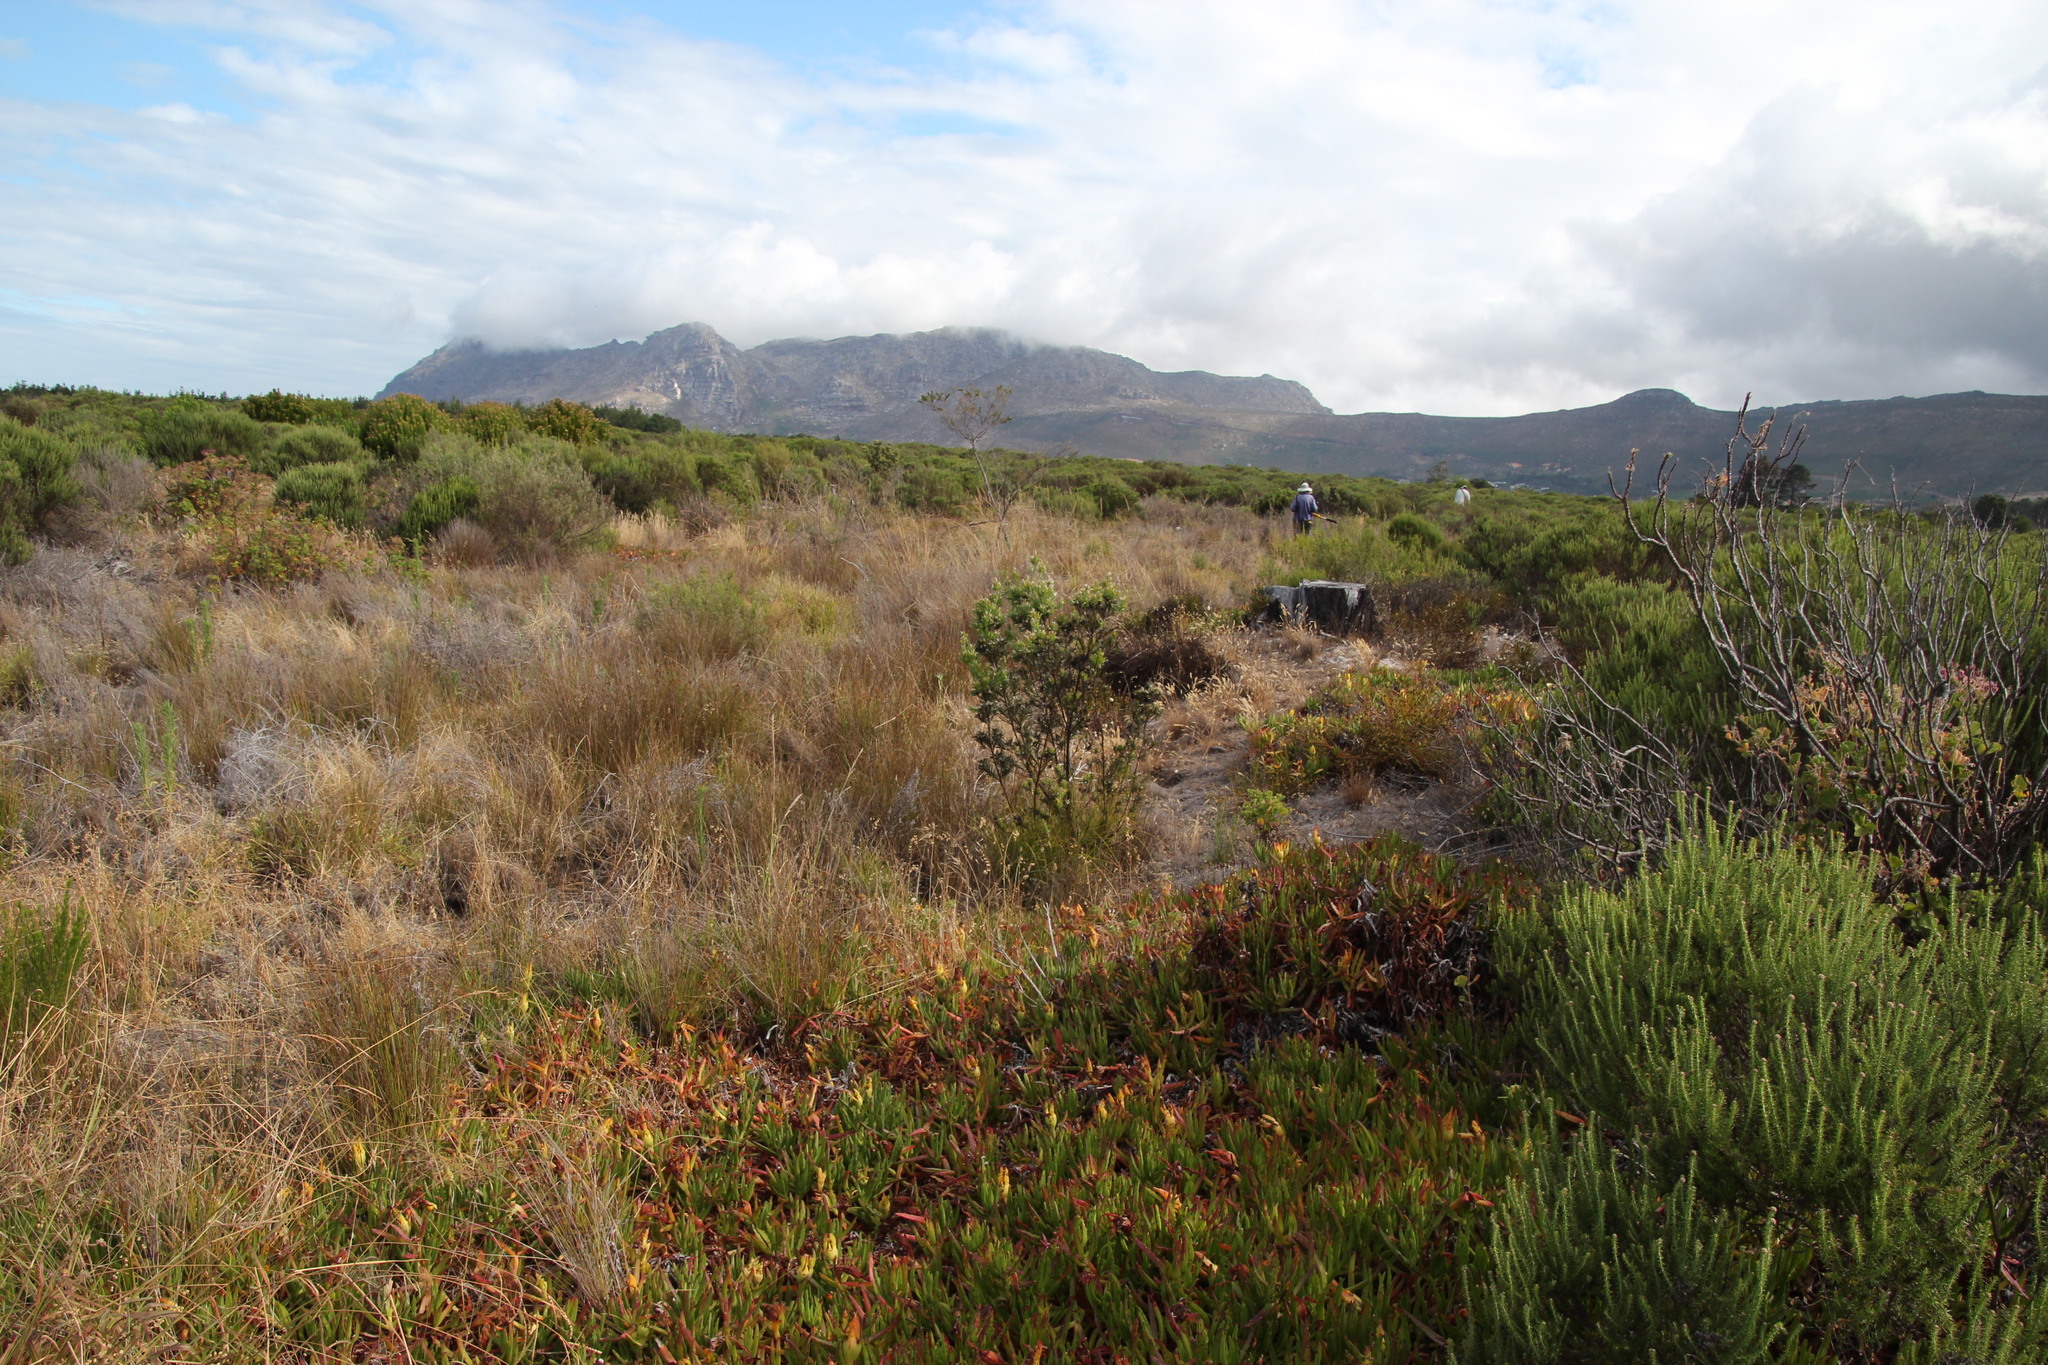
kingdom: Plantae
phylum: Tracheophyta
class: Magnoliopsida
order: Proteales
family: Proteaceae
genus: Leucadendron
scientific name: Leucadendron floridum
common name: Flats conebush
